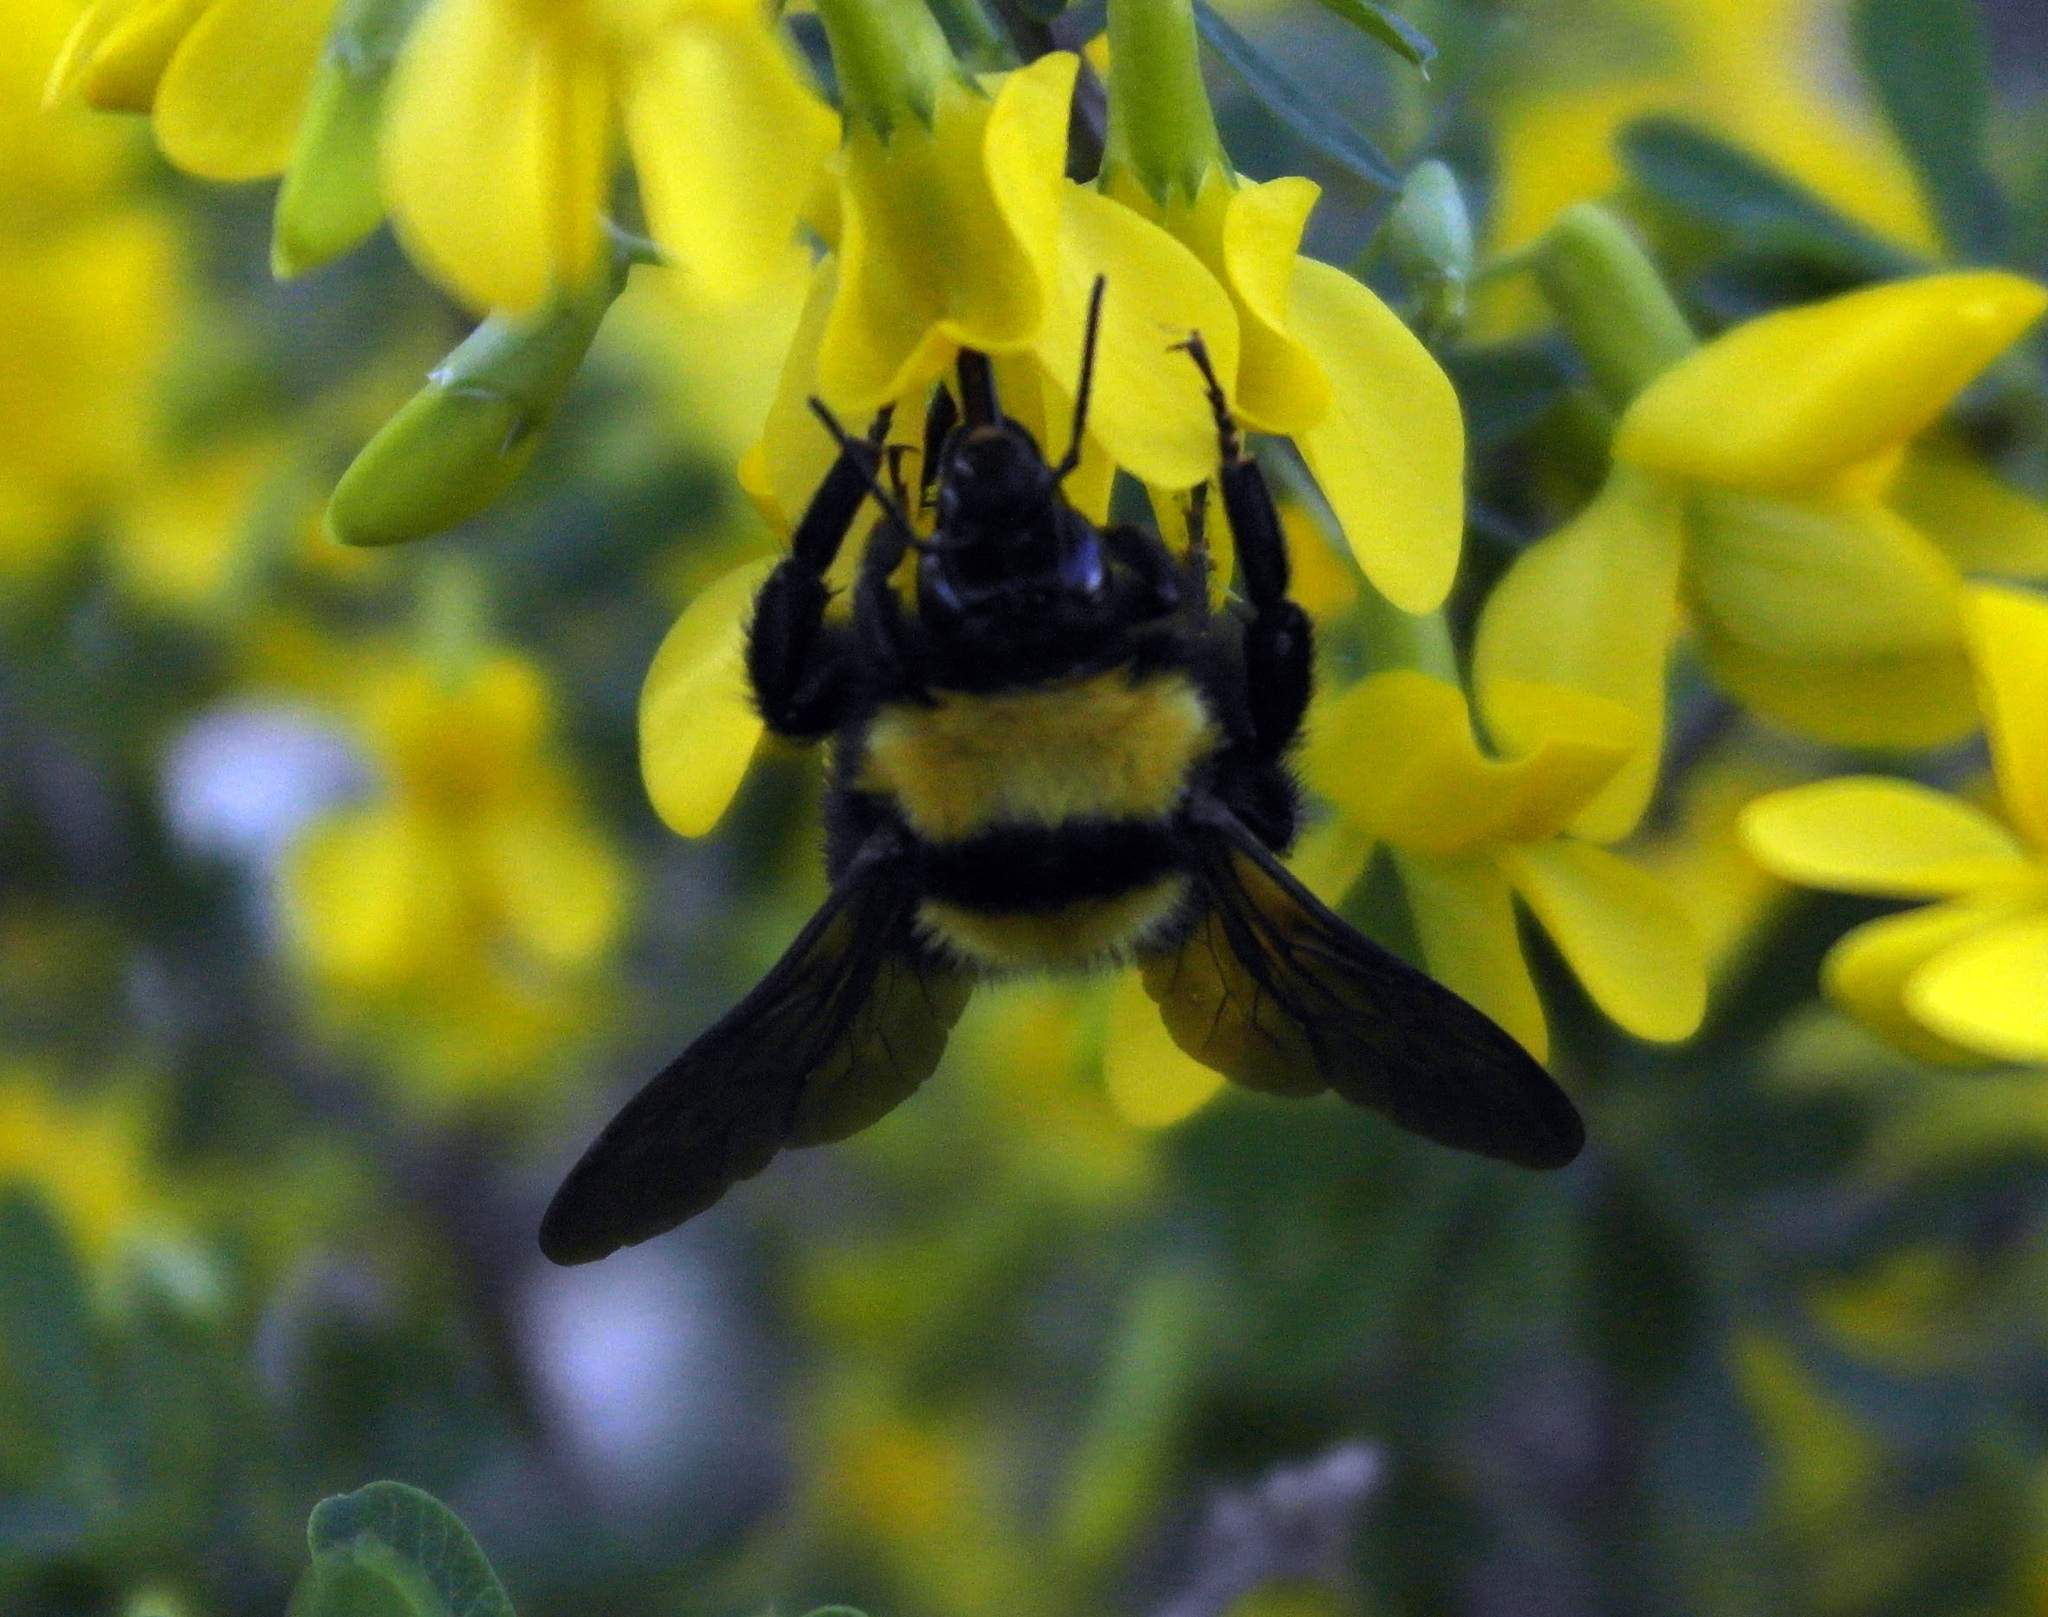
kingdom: Animalia
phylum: Arthropoda
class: Insecta
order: Hymenoptera
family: Apidae
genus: Bombus
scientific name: Bombus argillaceus
